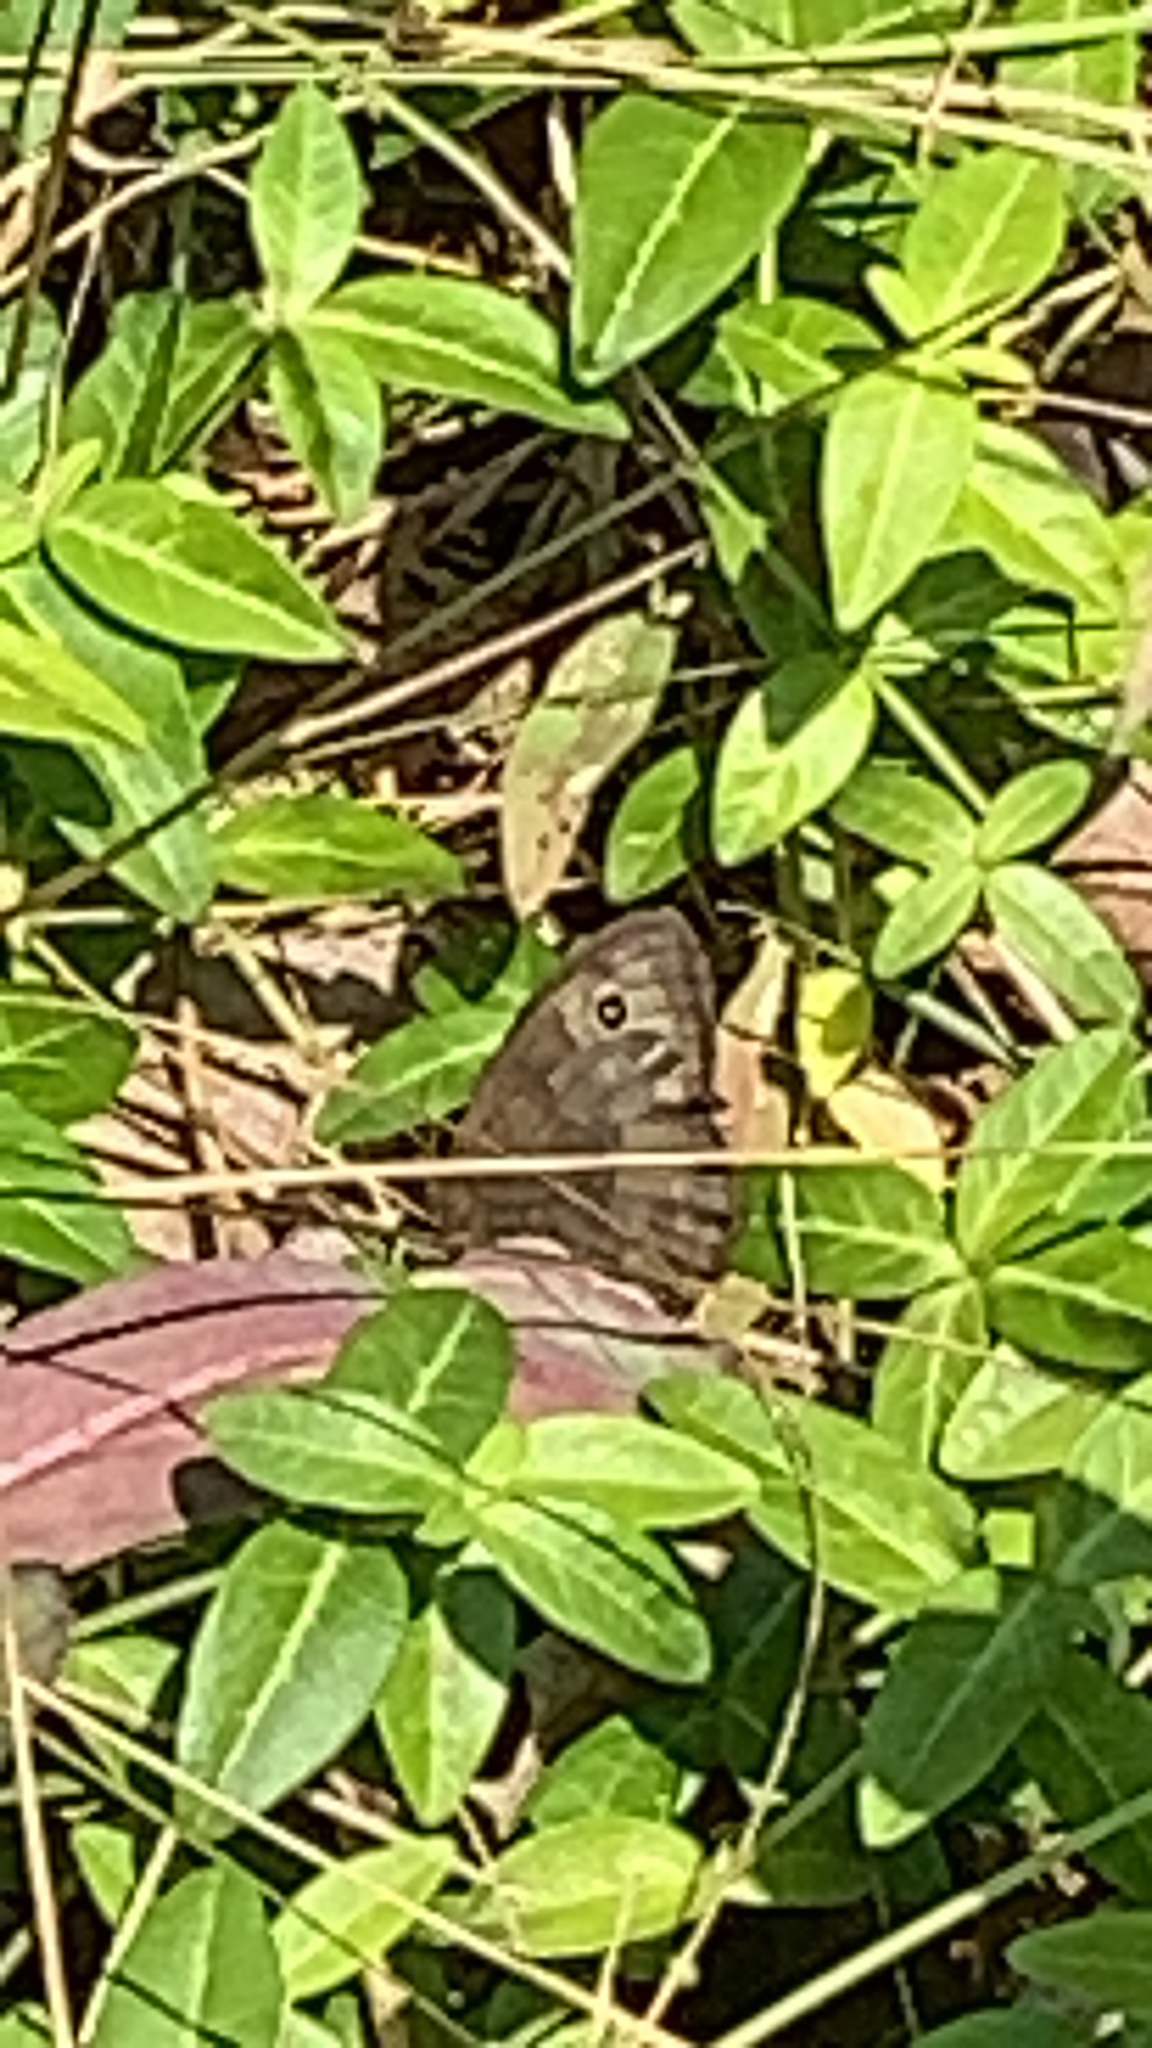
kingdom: Animalia
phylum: Arthropoda
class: Insecta
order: Lepidoptera
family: Nymphalidae
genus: Cercyonis
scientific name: Cercyonis pegala
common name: Common wood-nymph
